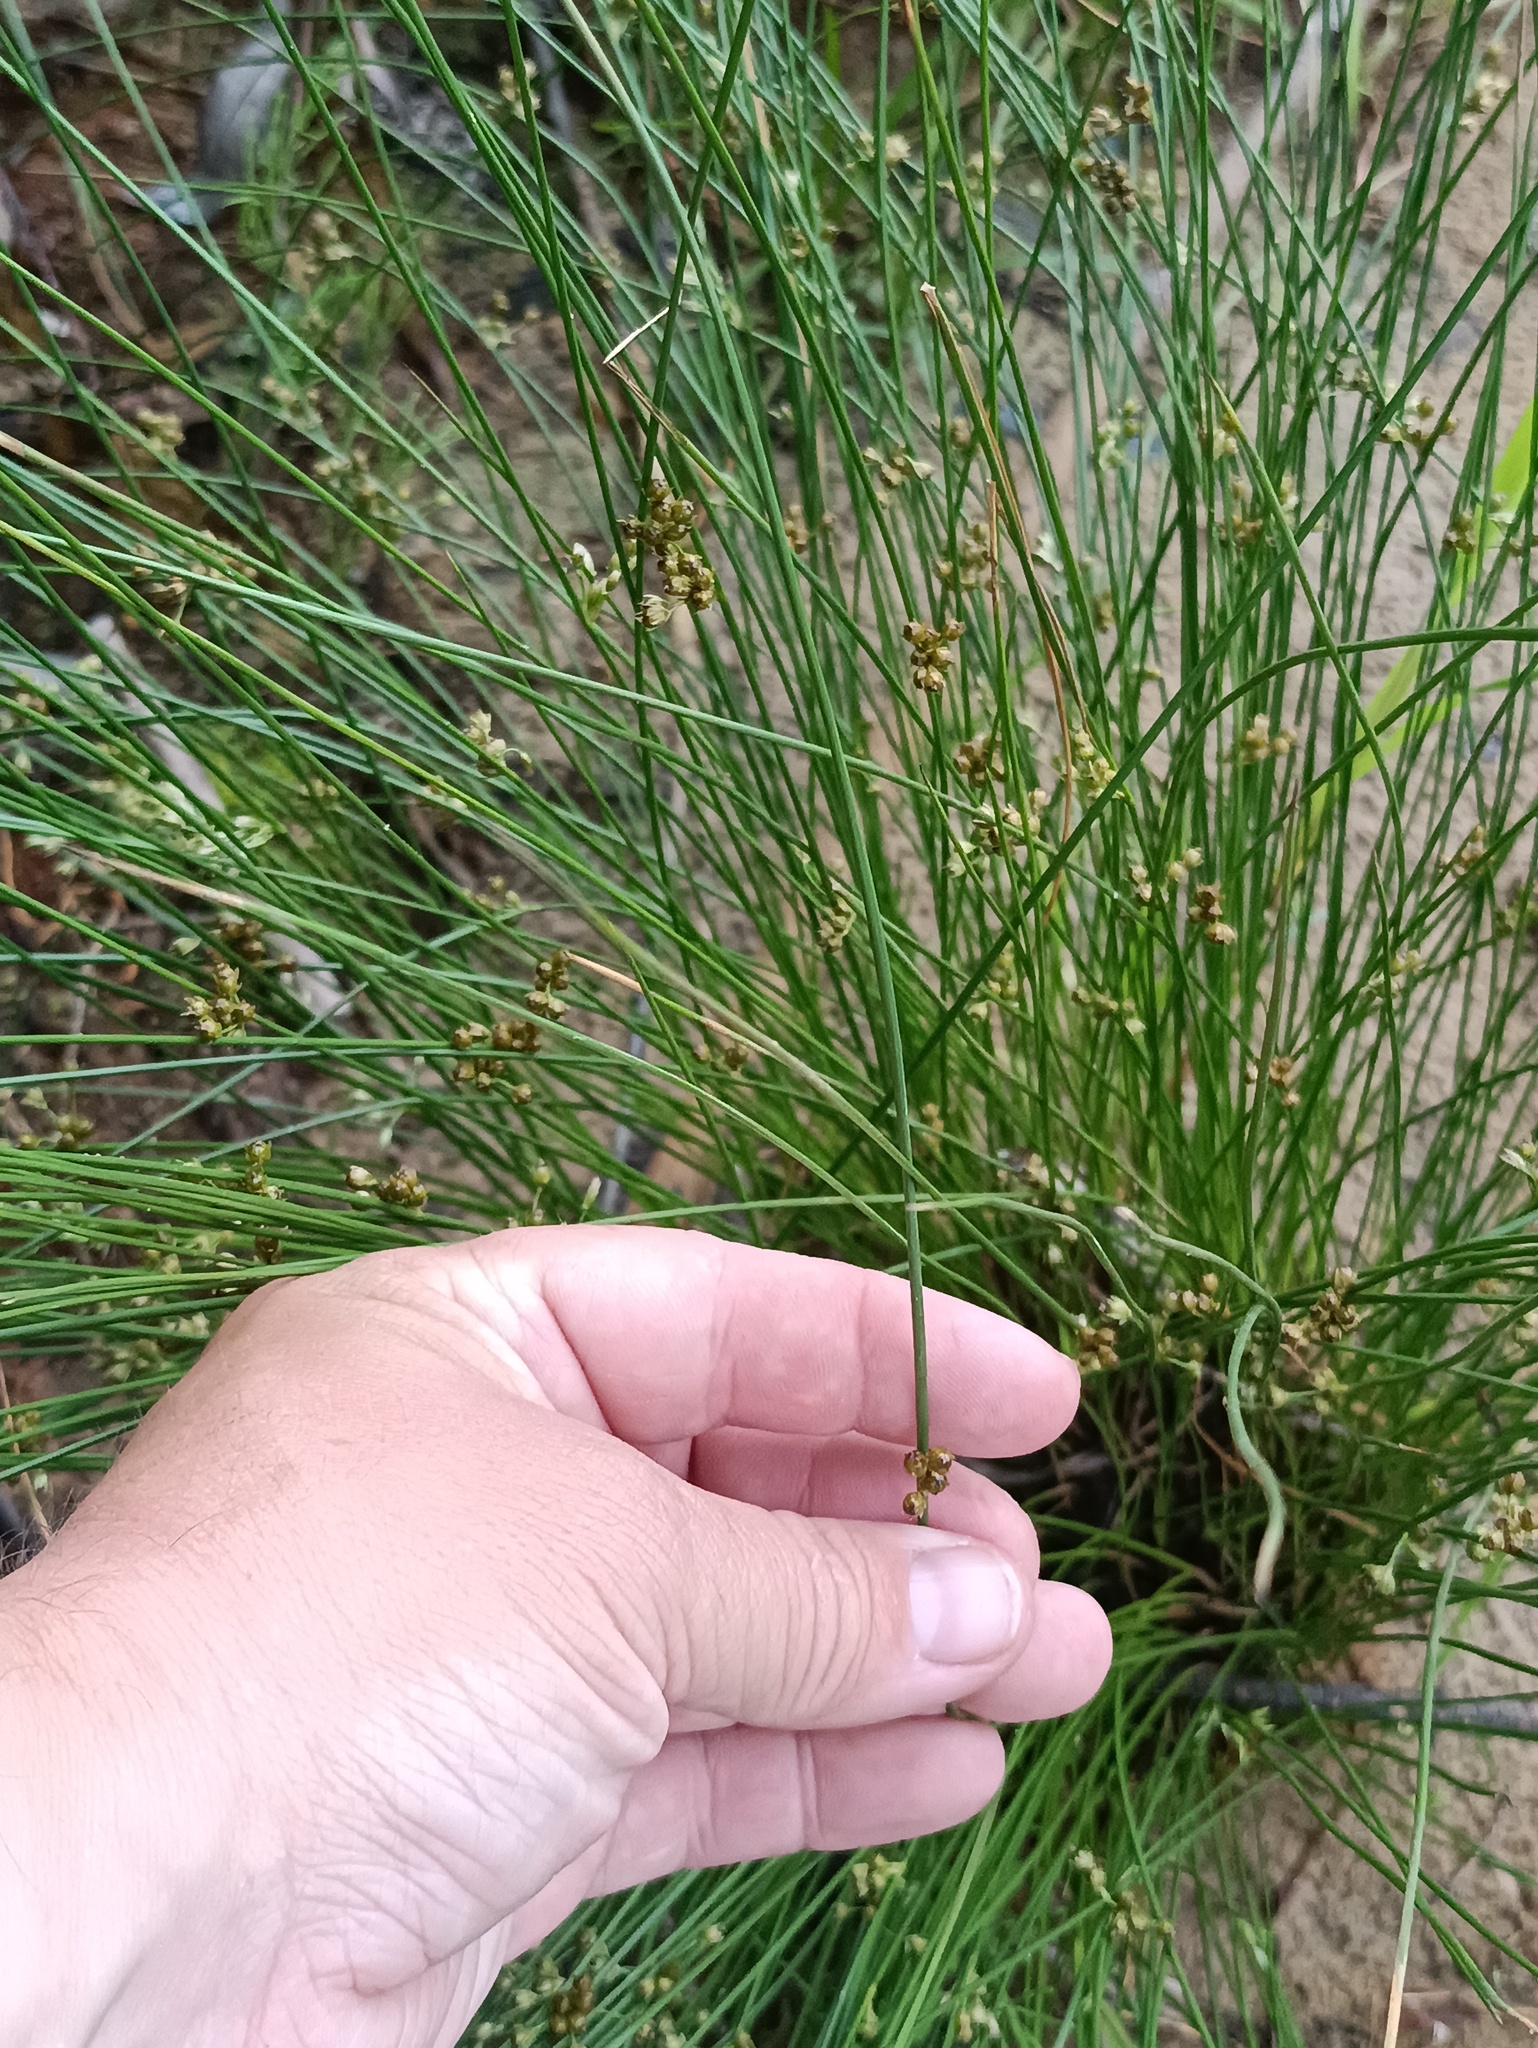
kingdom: Plantae
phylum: Tracheophyta
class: Liliopsida
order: Poales
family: Juncaceae
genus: Juncus
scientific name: Juncus filiformis
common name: Thread rush
